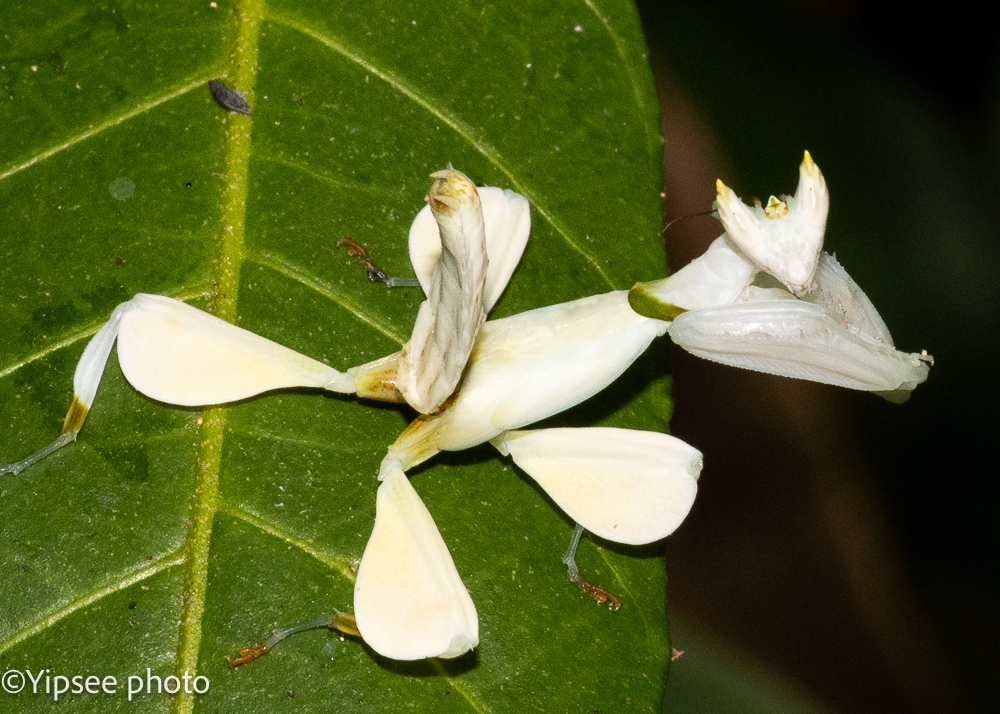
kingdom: Animalia
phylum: Arthropoda
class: Insecta
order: Mantodea
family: Hymenopodidae
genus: Hymenopus
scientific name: Hymenopus coronatus
